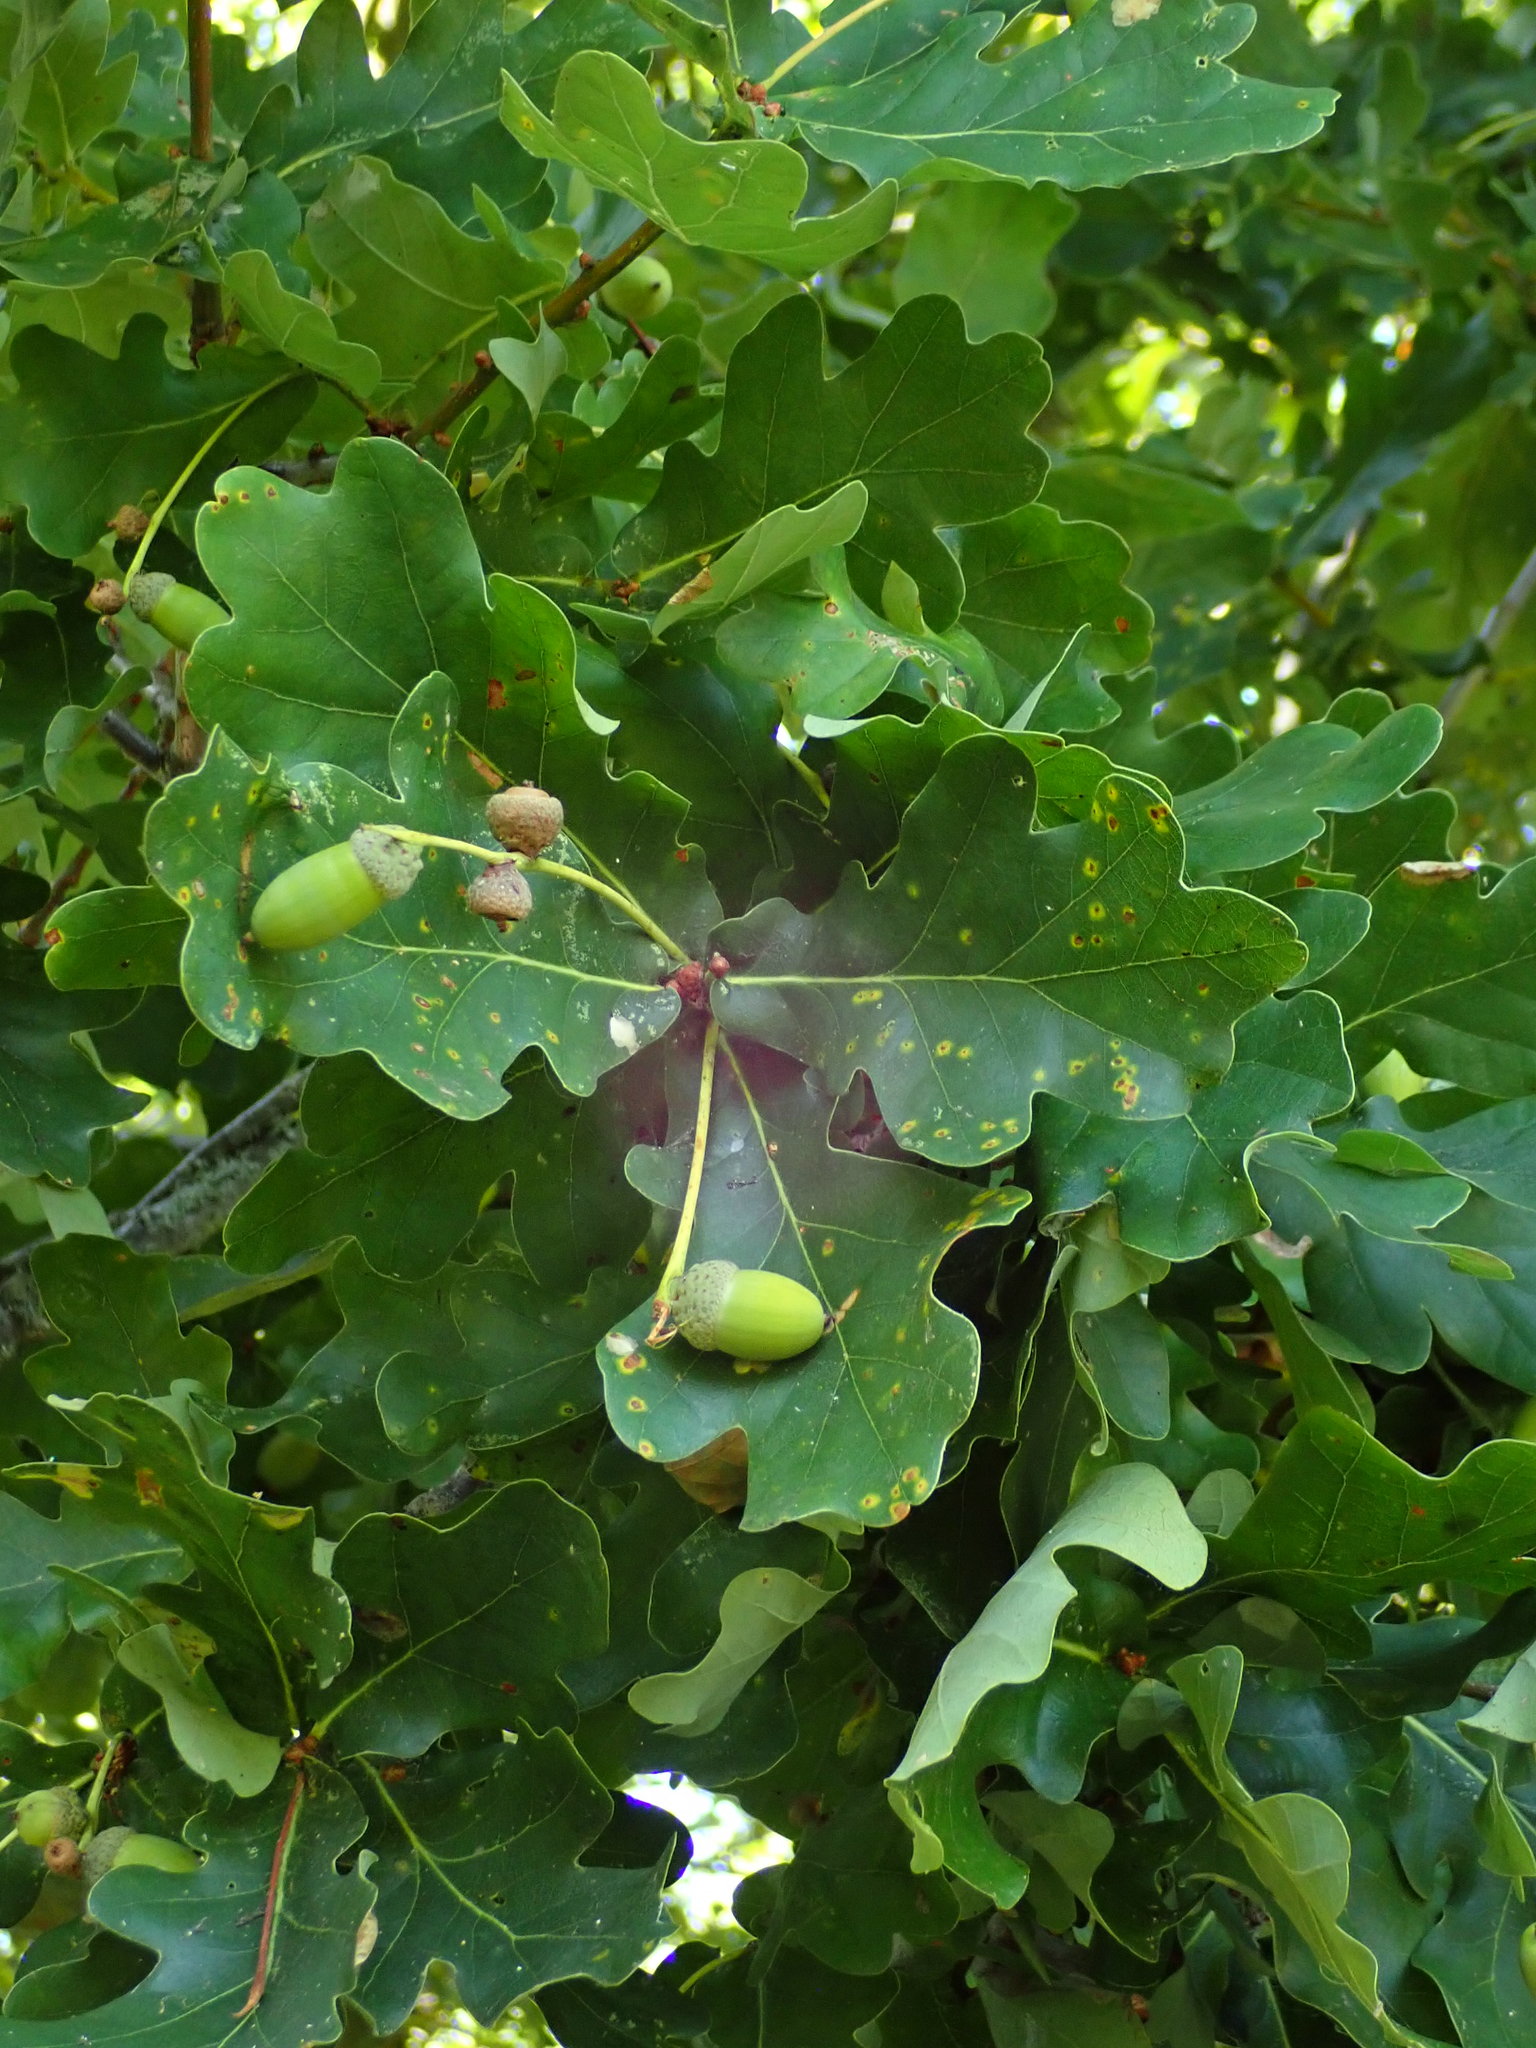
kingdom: Plantae
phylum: Tracheophyta
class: Magnoliopsida
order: Fagales
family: Fagaceae
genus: Quercus
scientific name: Quercus robur
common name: Pedunculate oak
